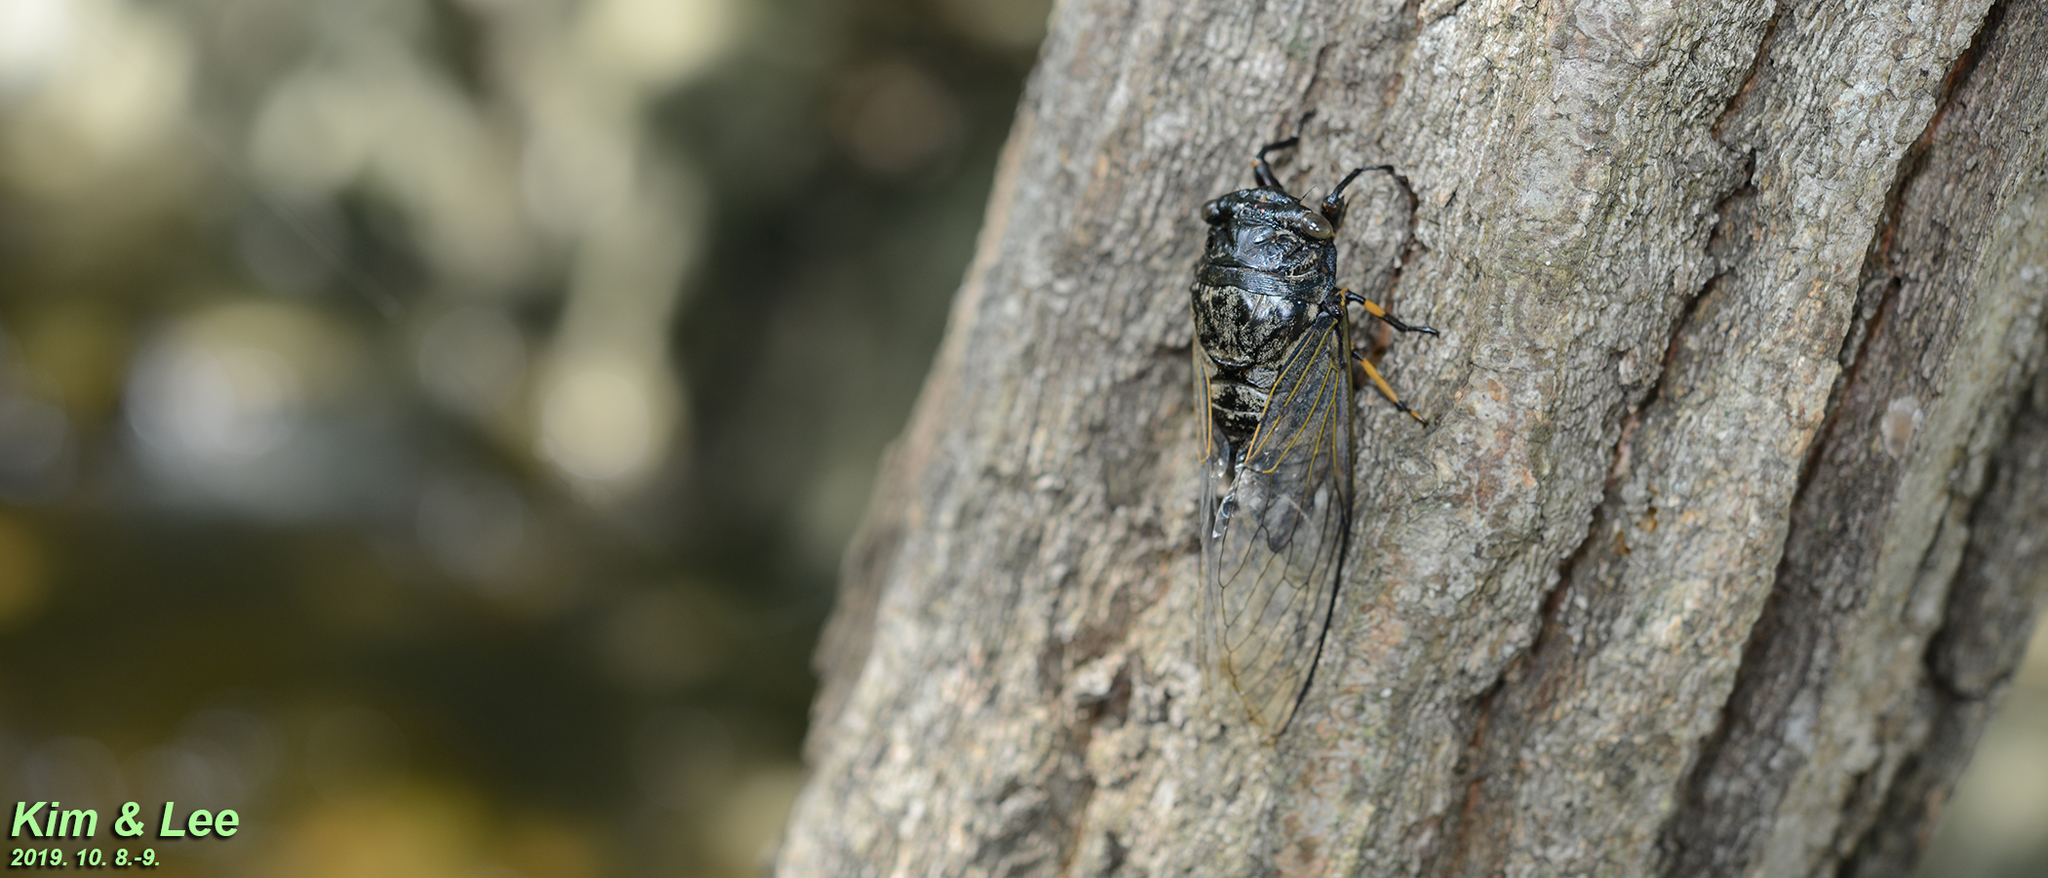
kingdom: Animalia
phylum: Arthropoda
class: Insecta
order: Hemiptera
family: Cicadidae
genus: Cryptotympana
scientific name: Cryptotympana atrata
